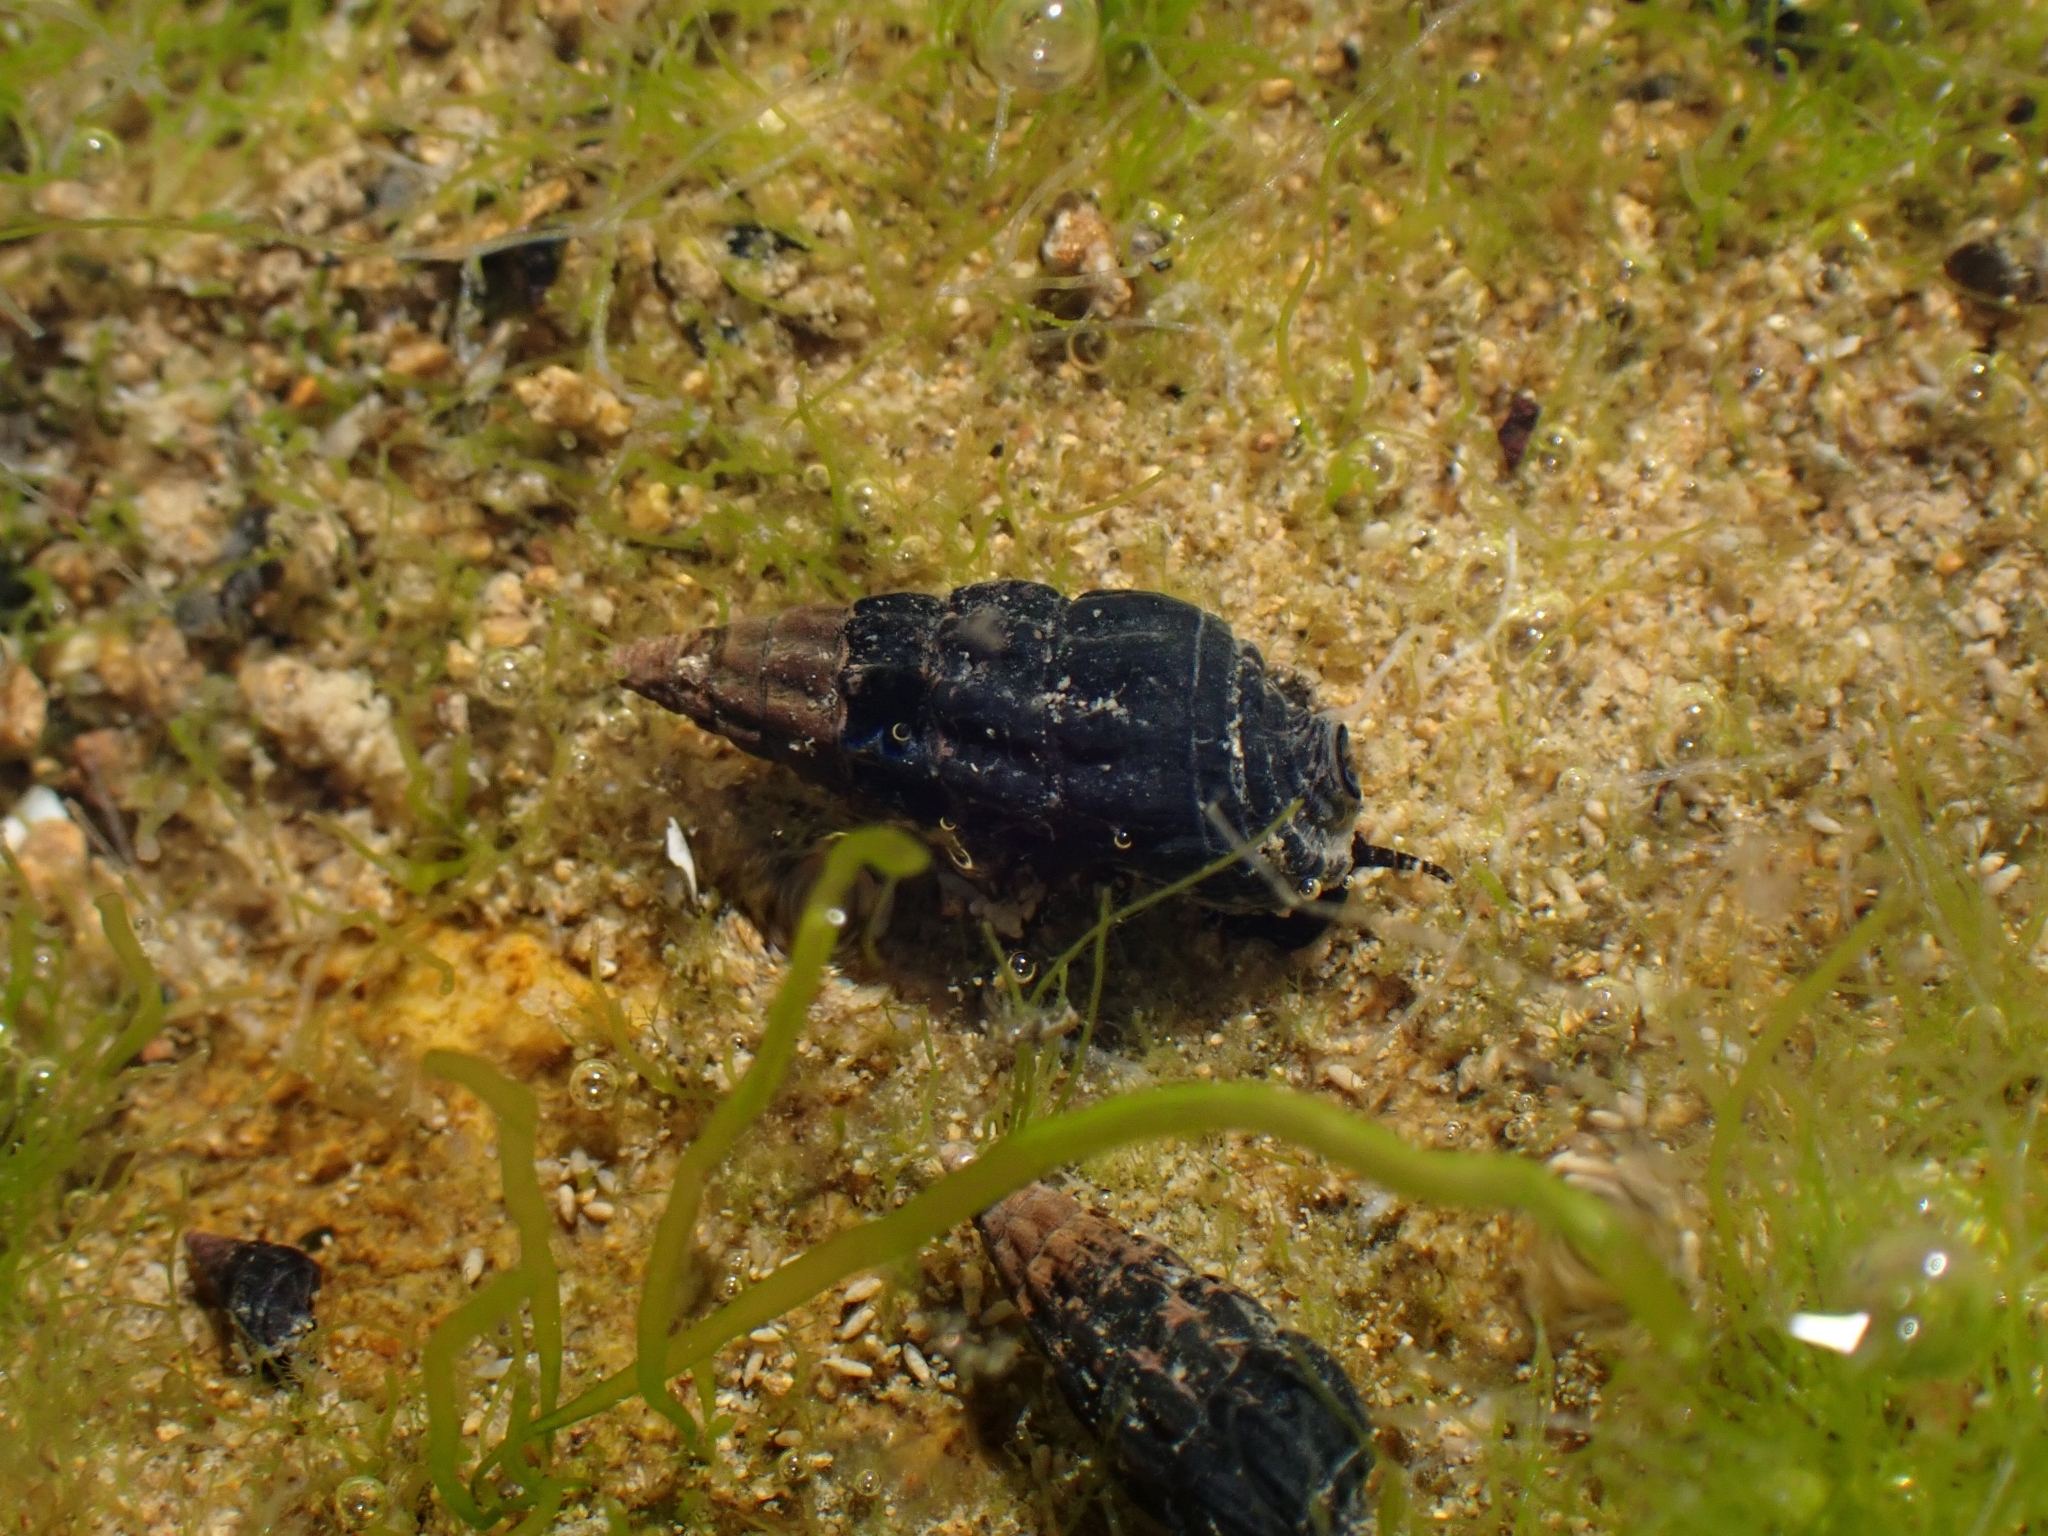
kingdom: Animalia
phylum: Mollusca
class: Gastropoda
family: Batillariidae
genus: Zeacumantus
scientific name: Zeacumantus subcarinatus
